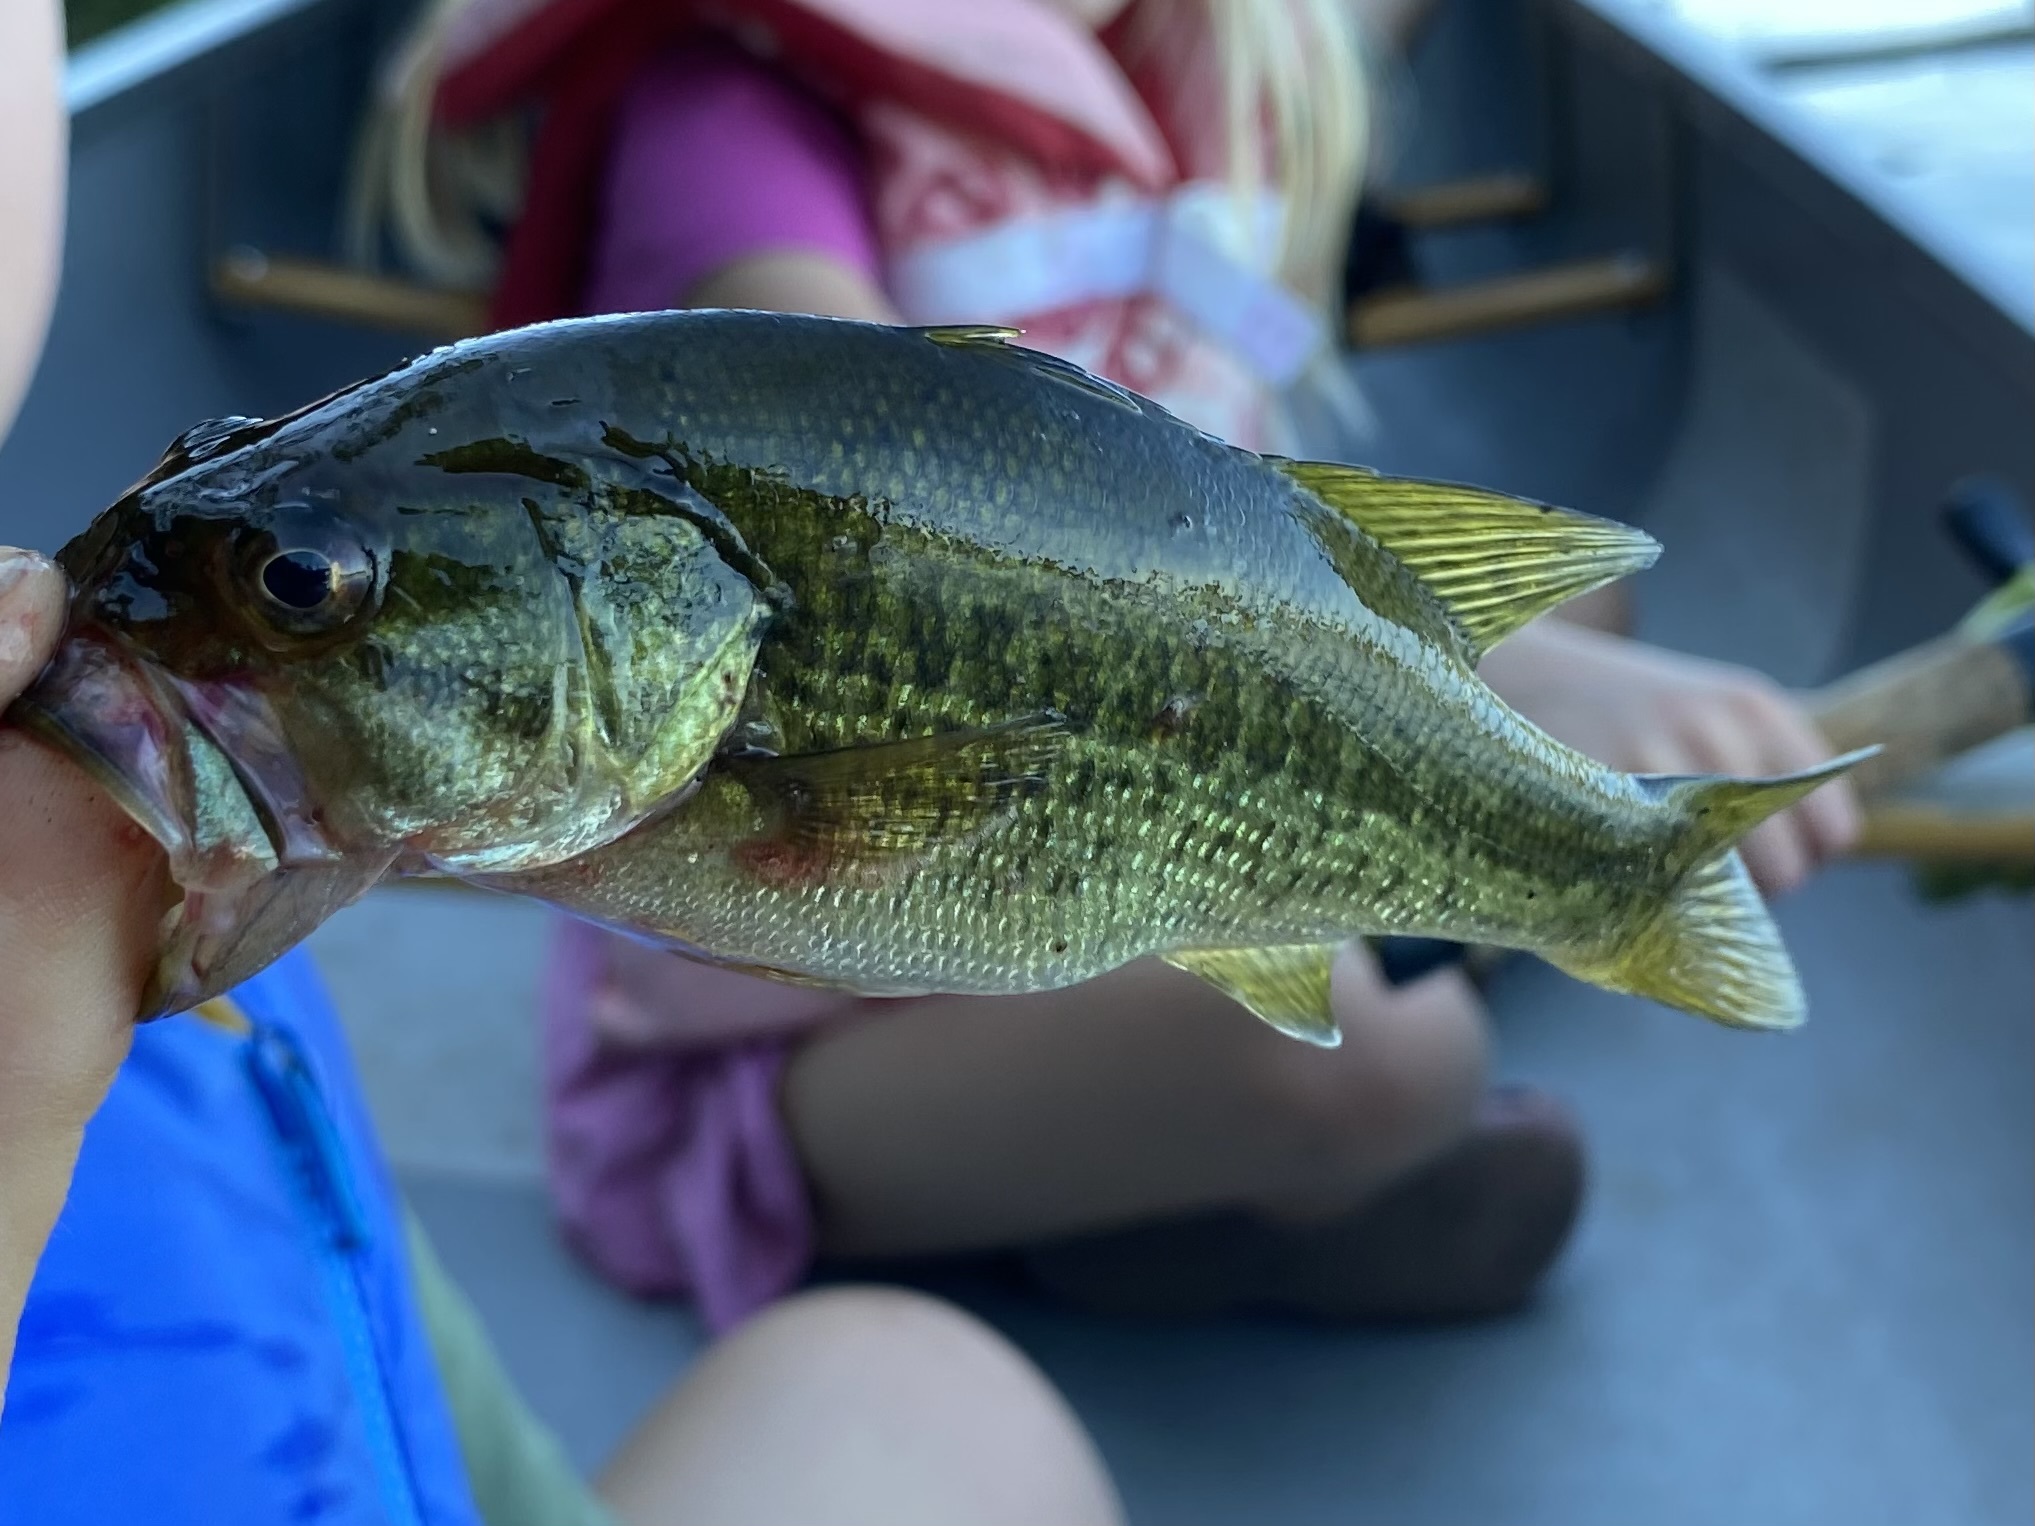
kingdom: Animalia
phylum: Chordata
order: Perciformes
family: Centrarchidae
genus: Micropterus
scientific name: Micropterus
